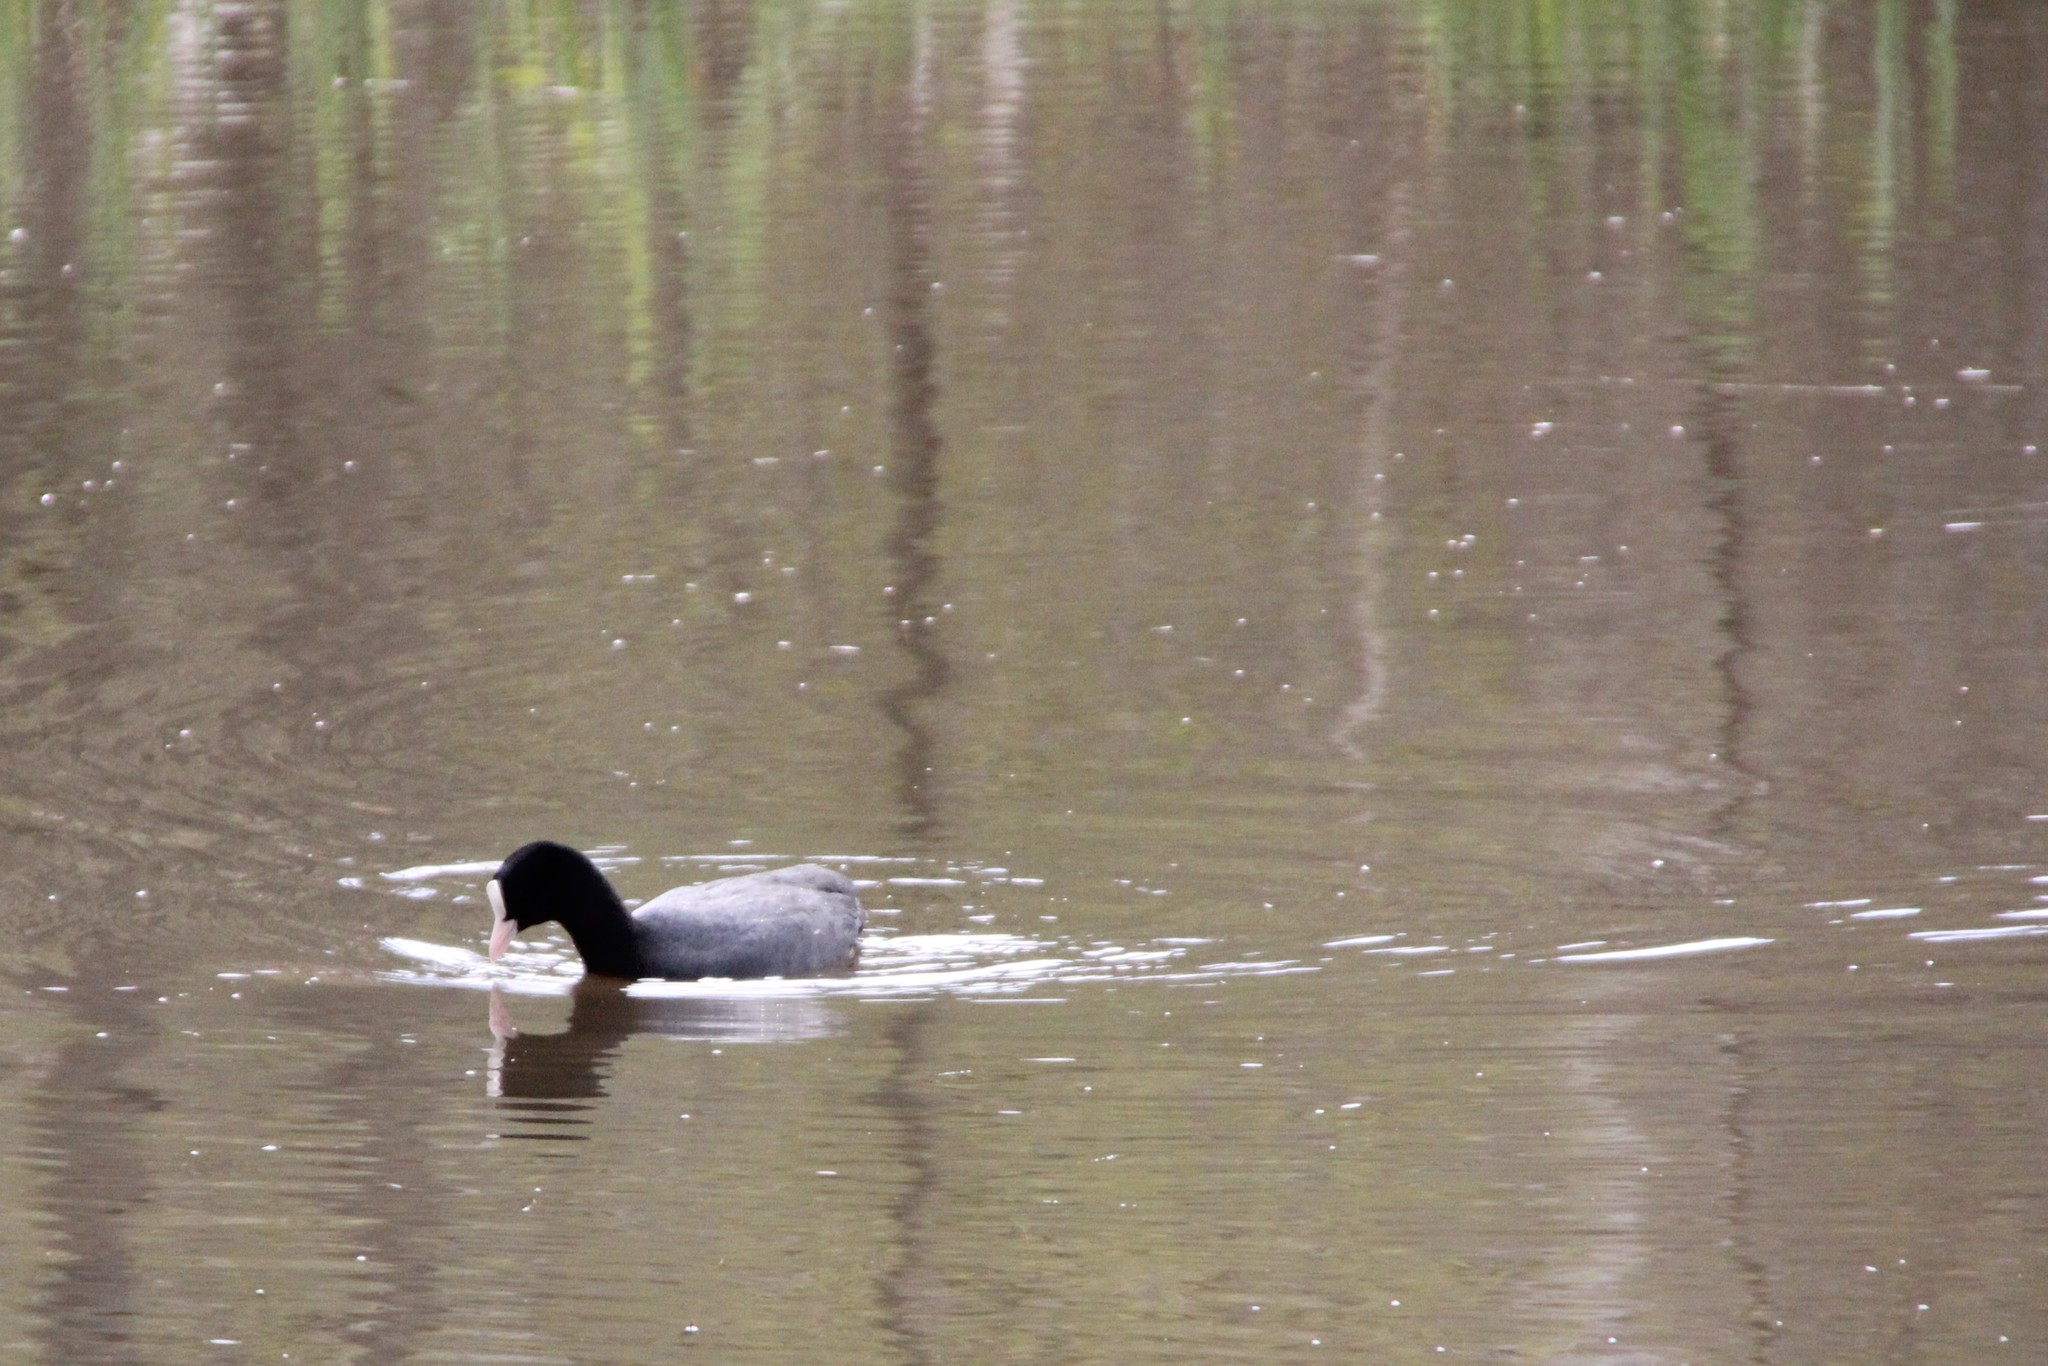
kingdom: Animalia
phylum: Chordata
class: Aves
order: Gruiformes
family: Rallidae
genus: Fulica
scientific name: Fulica atra
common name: Eurasian coot
